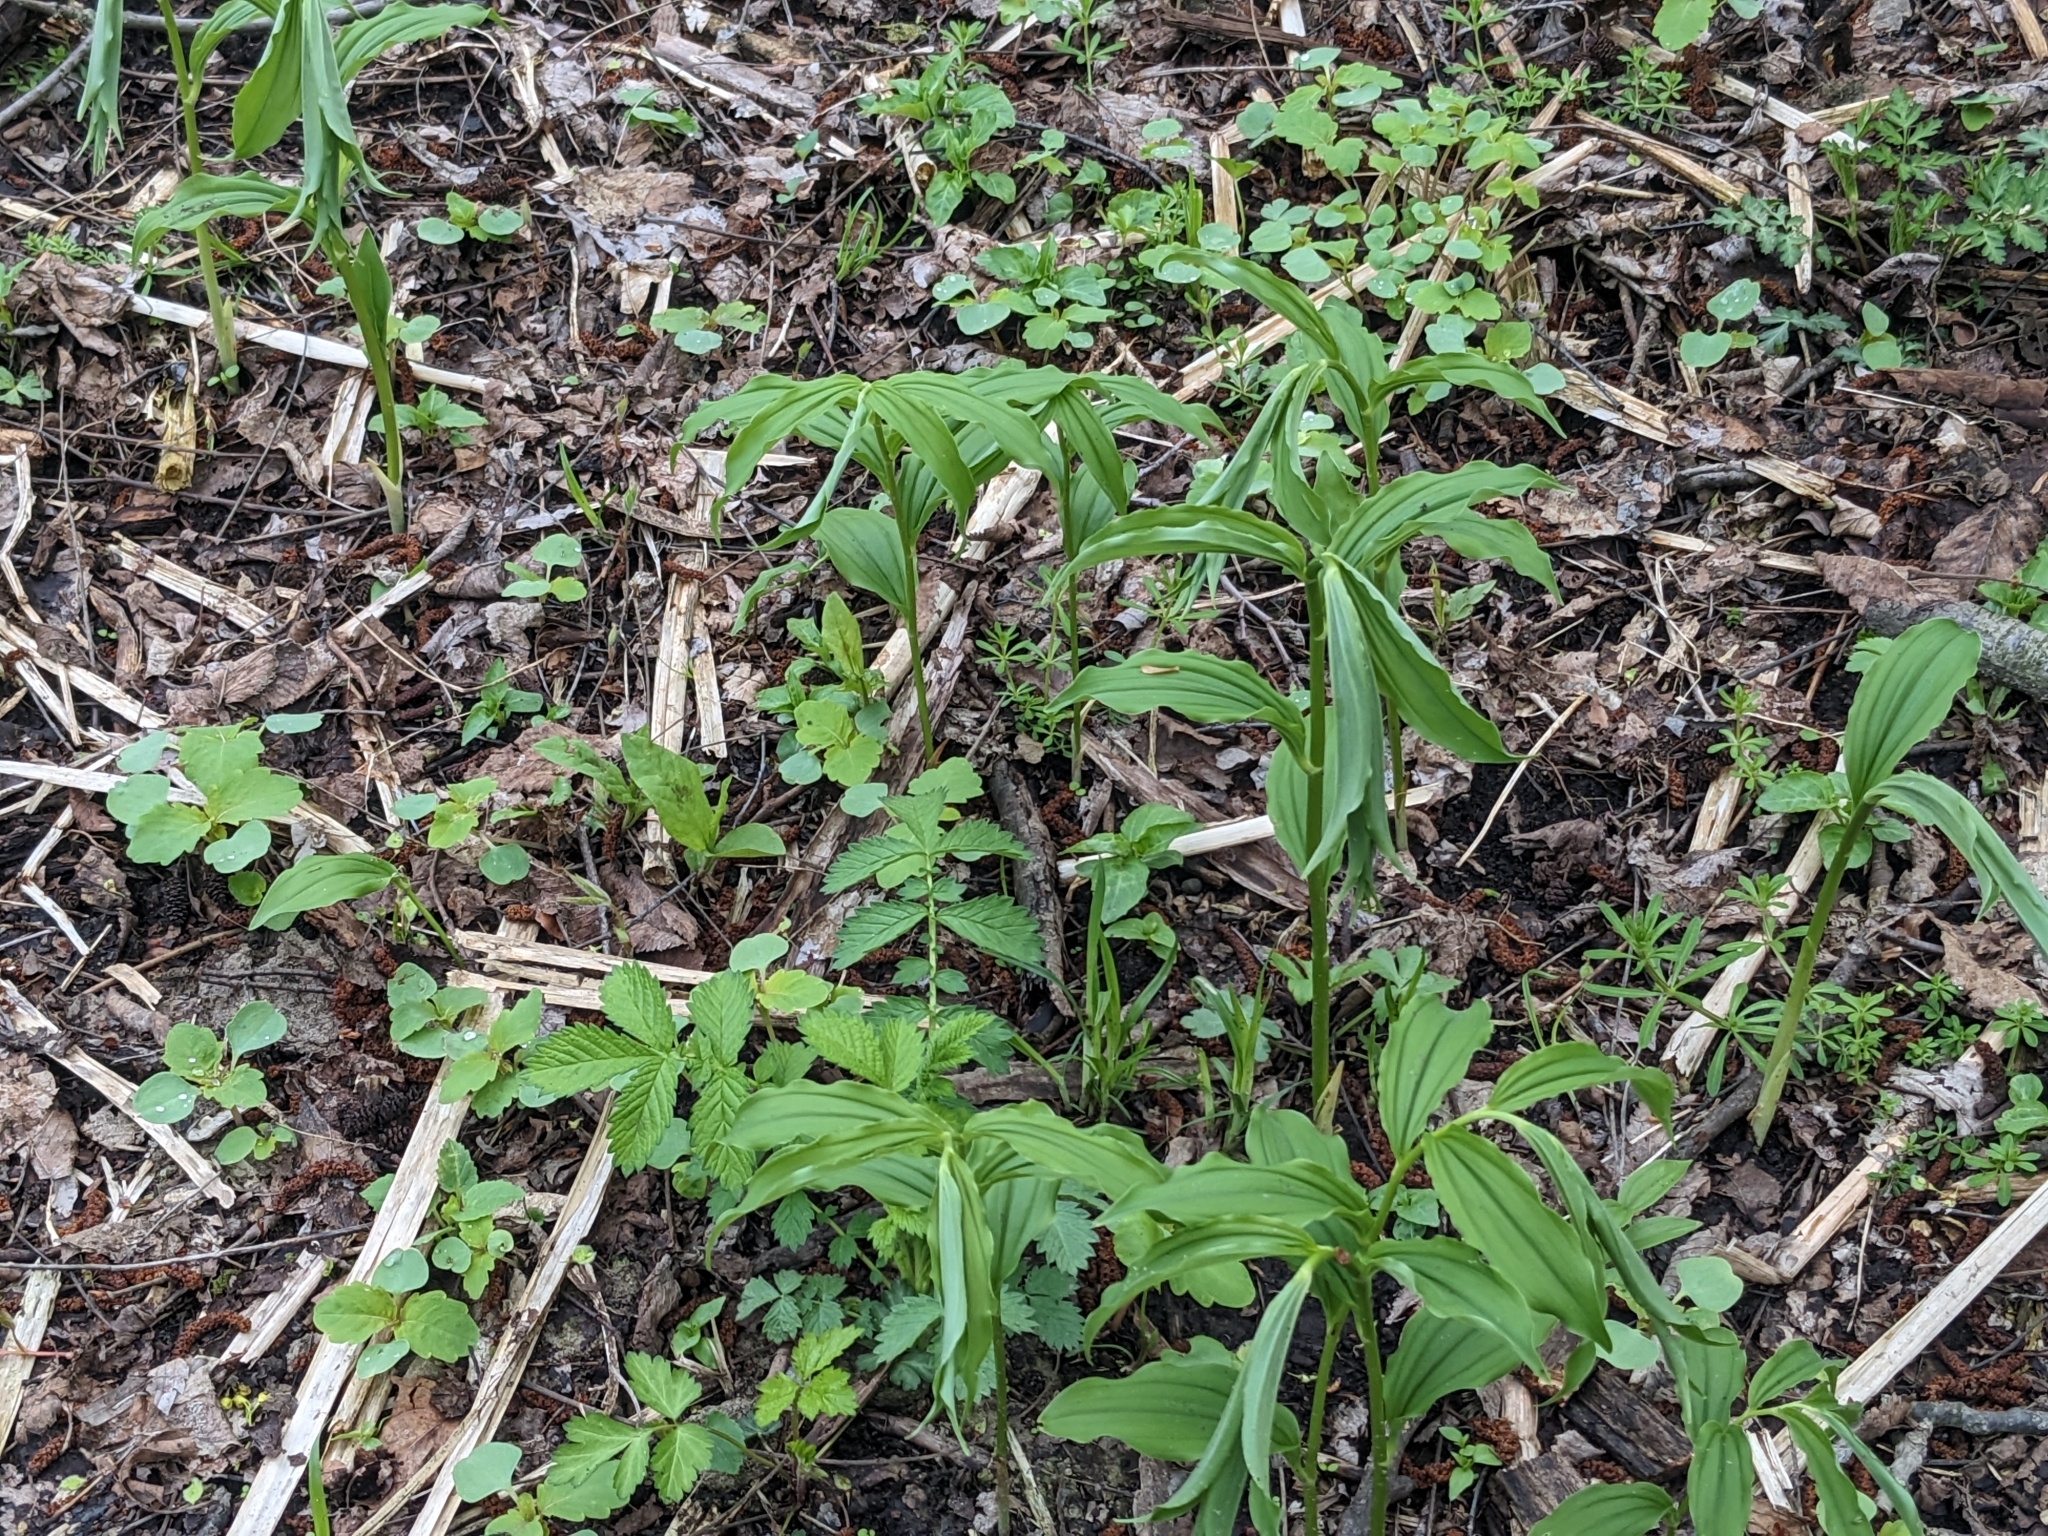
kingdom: Plantae
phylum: Tracheophyta
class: Liliopsida
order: Asparagales
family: Asparagaceae
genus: Maianthemum
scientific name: Maianthemum racemosum
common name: False spikenard
